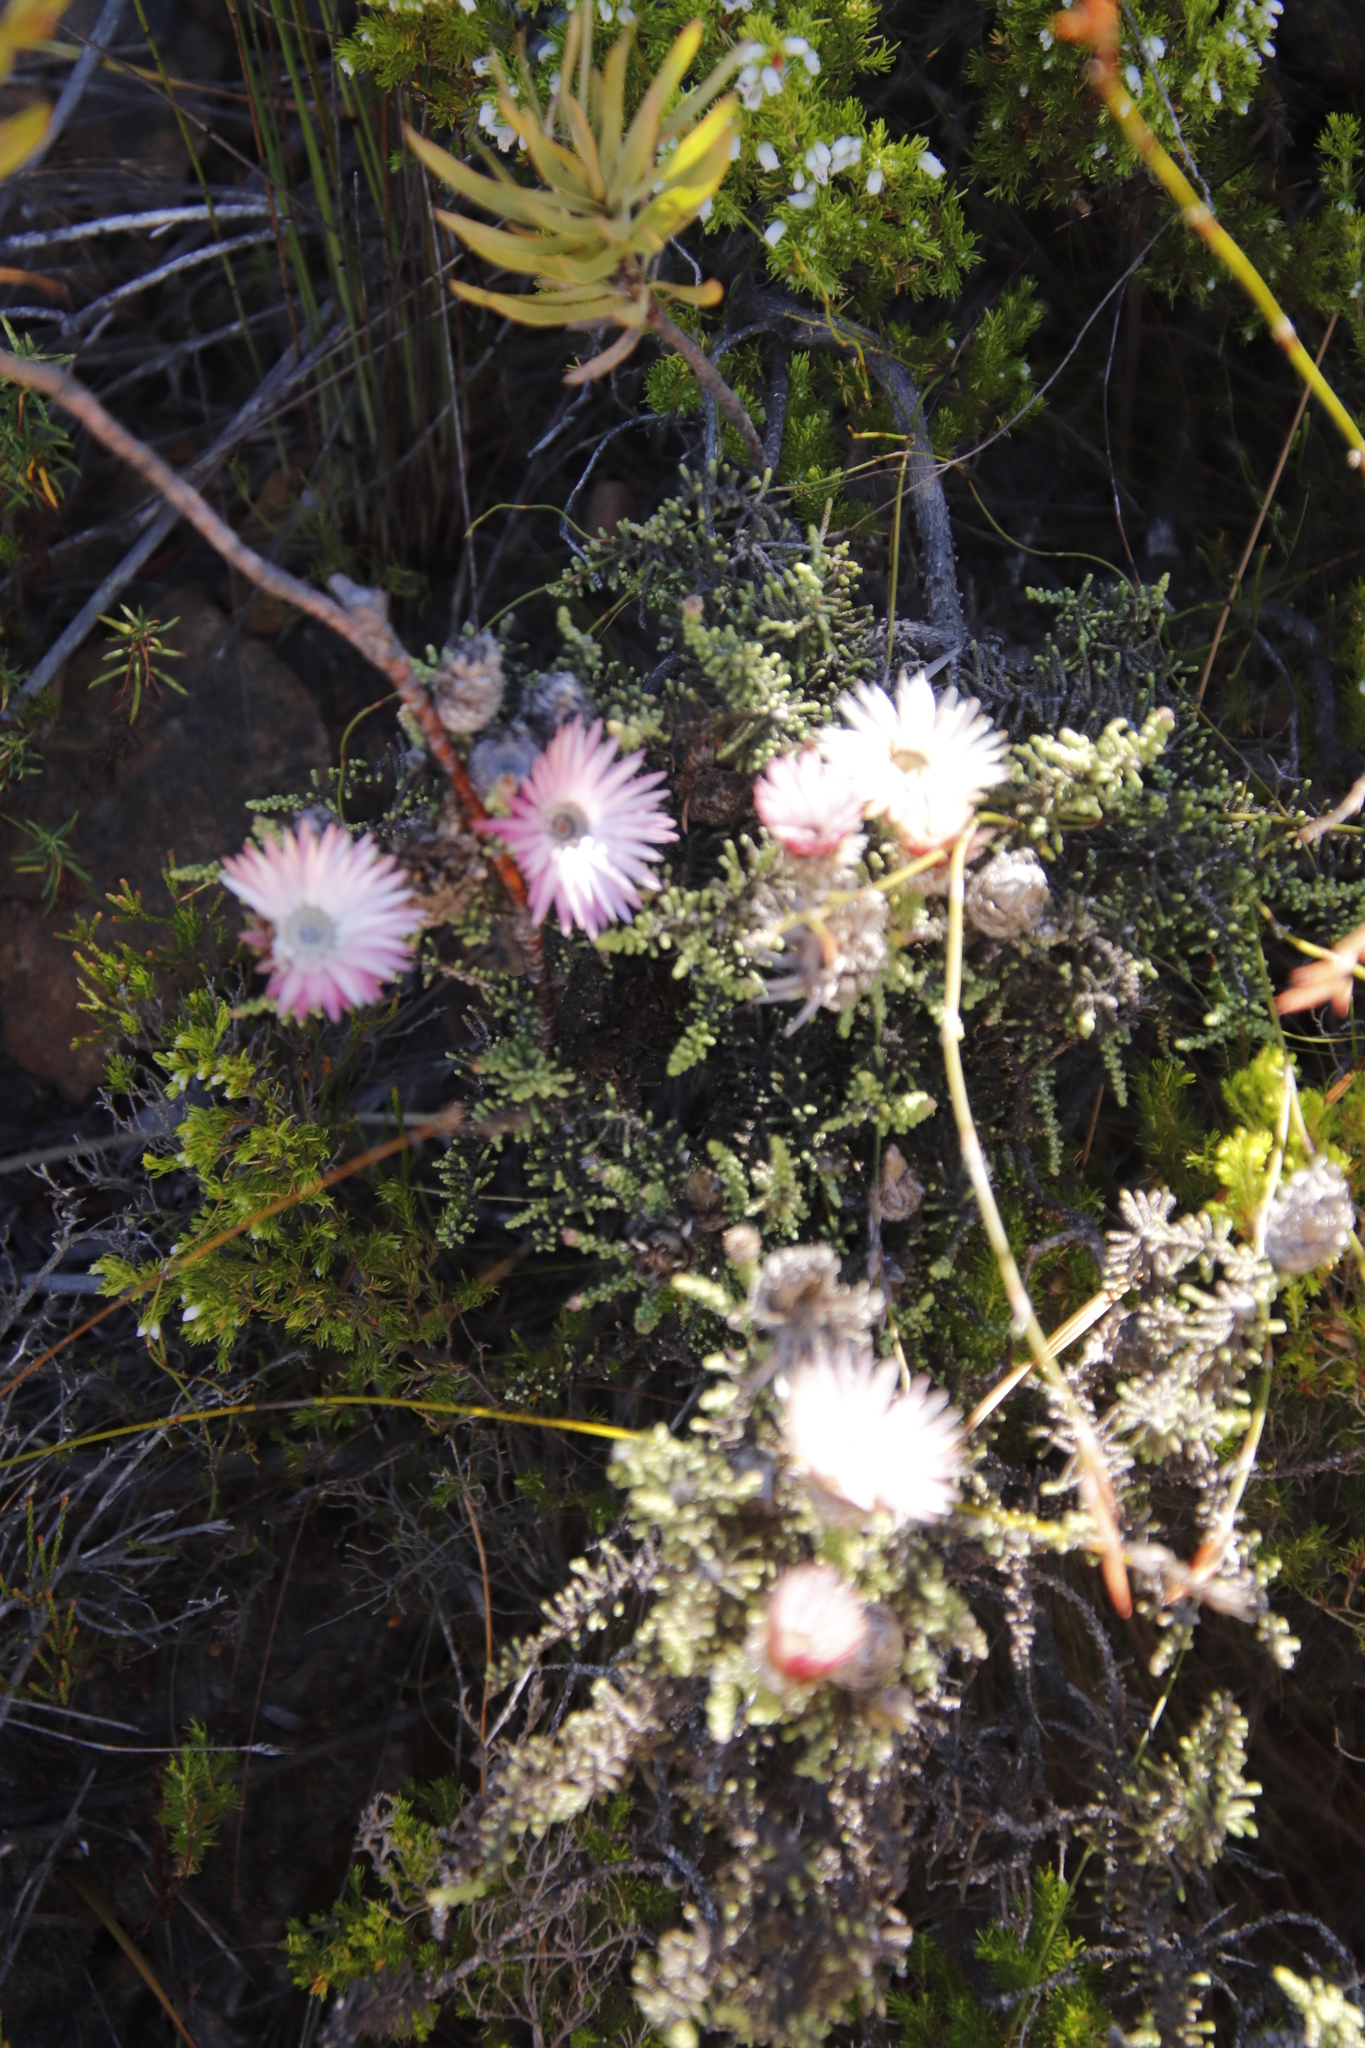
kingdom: Plantae
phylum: Tracheophyta
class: Magnoliopsida
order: Asterales
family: Asteraceae
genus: Phaenocoma
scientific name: Phaenocoma prolifera
